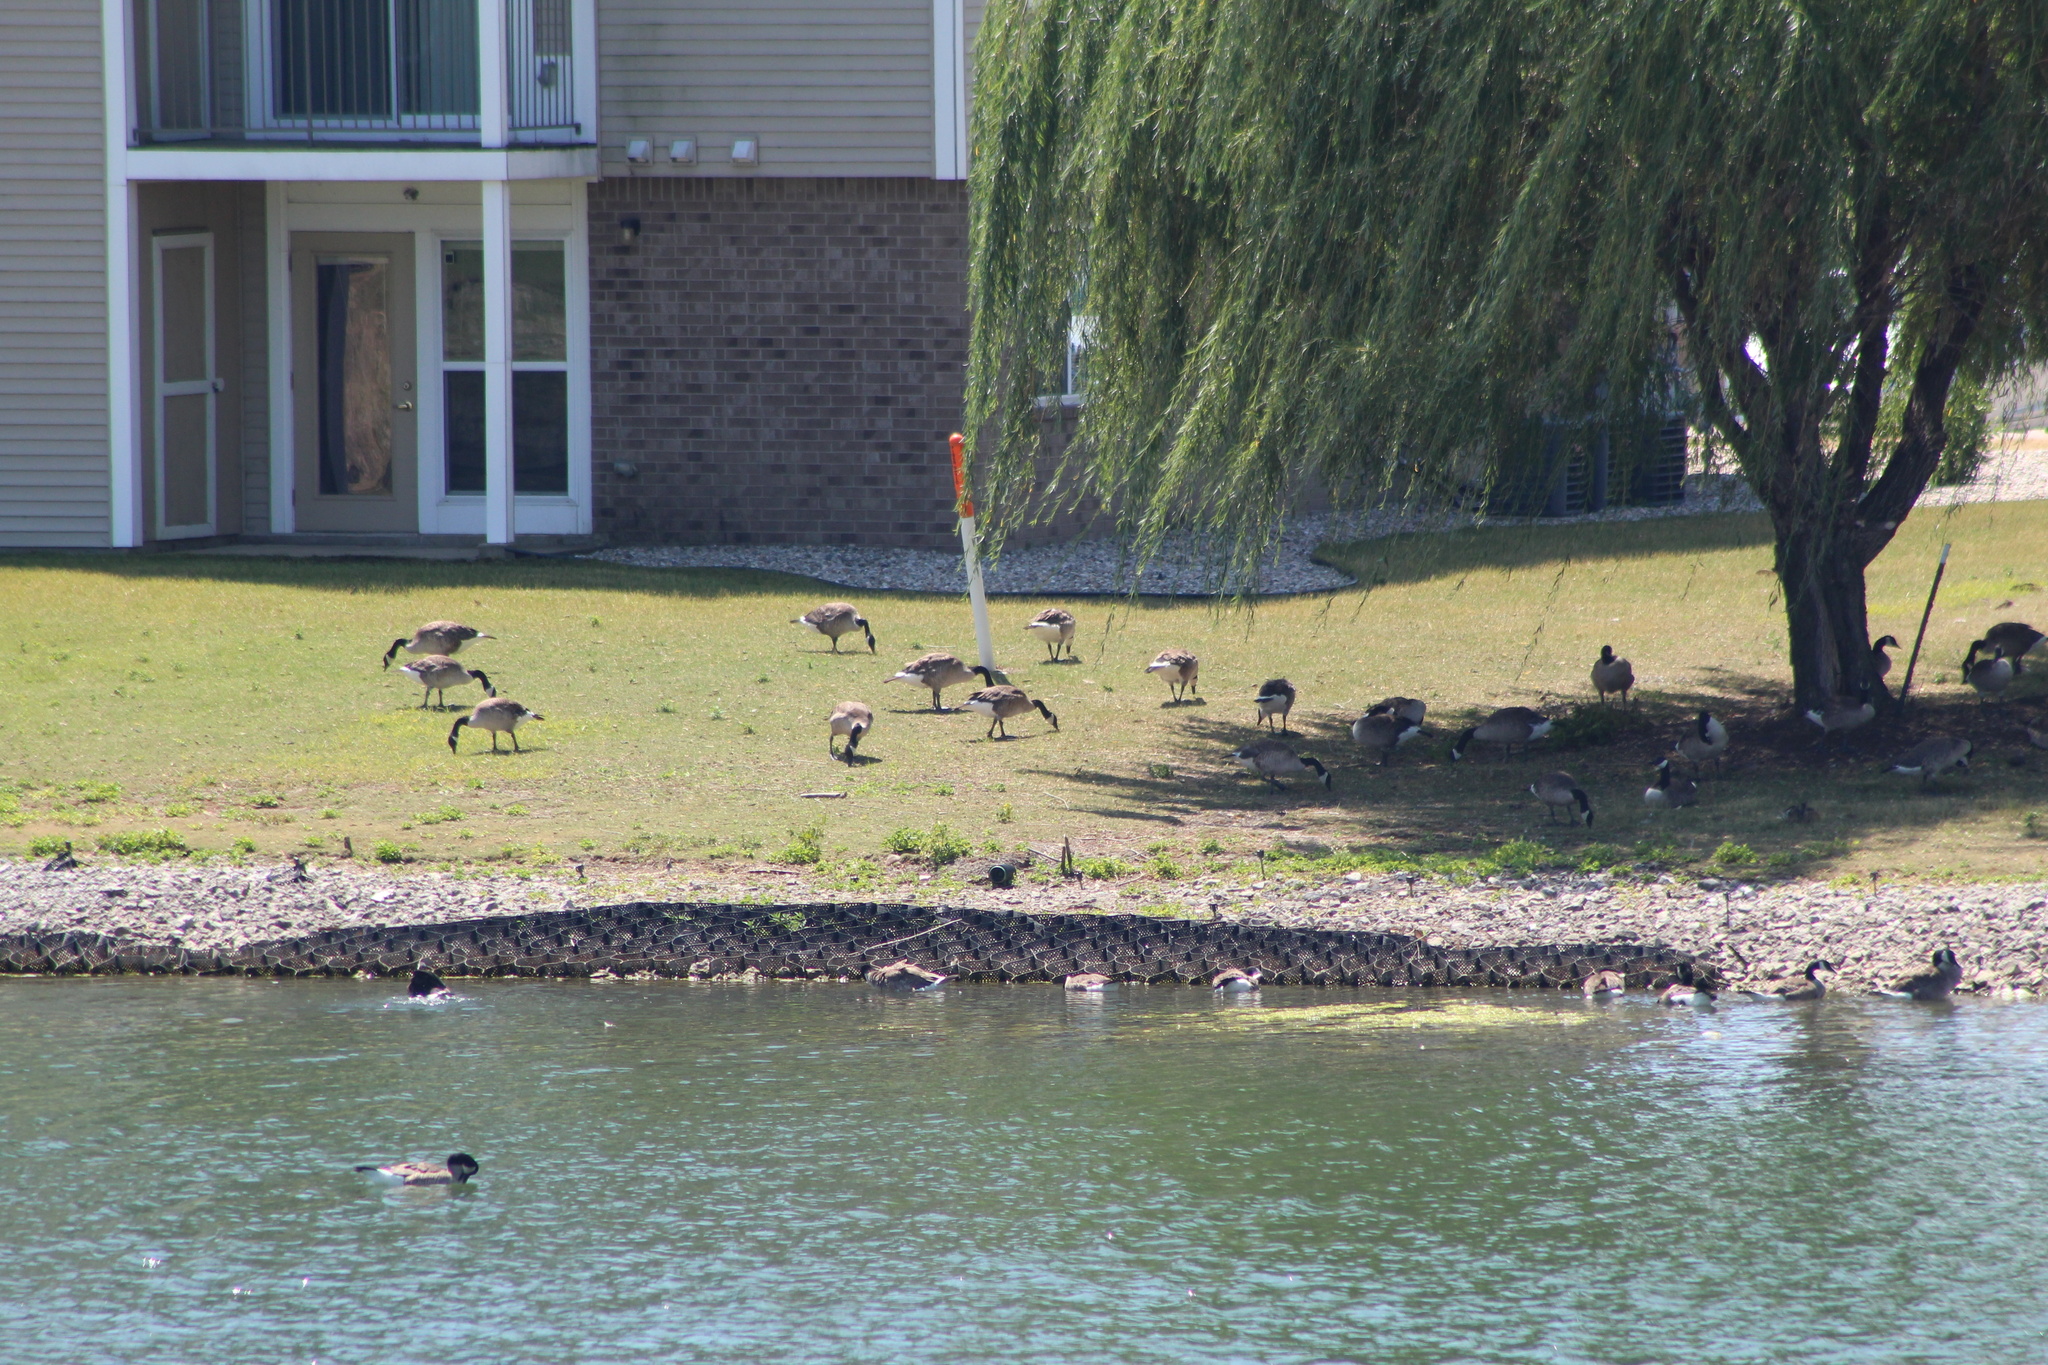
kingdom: Animalia
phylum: Chordata
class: Aves
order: Anseriformes
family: Anatidae
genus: Branta
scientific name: Branta canadensis
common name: Canada goose
